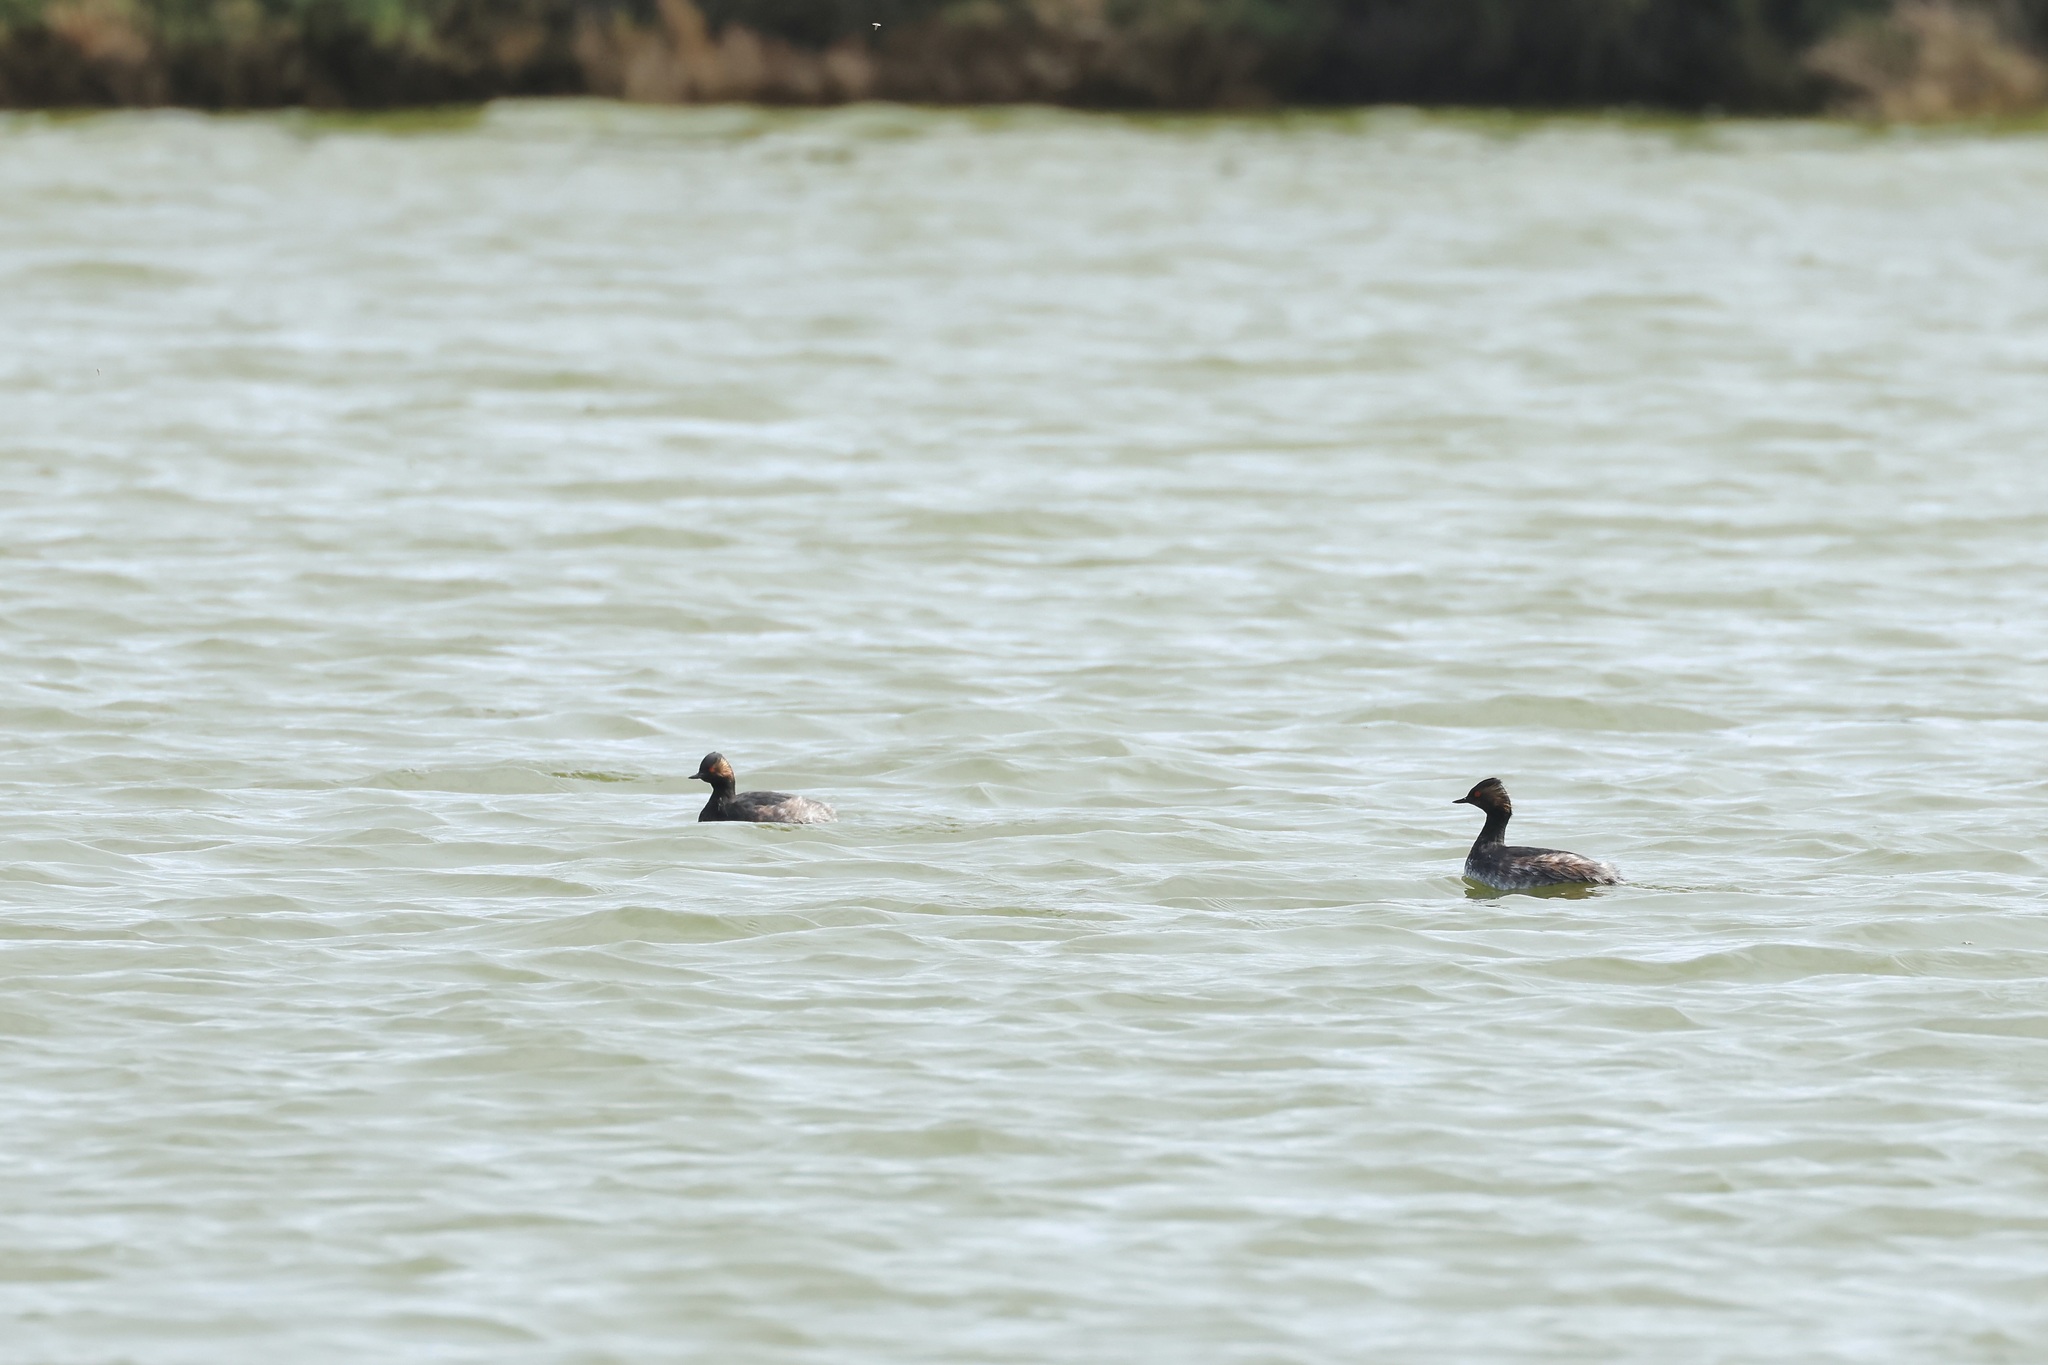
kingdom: Animalia
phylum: Chordata
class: Aves
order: Podicipediformes
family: Podicipedidae
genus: Podiceps
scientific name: Podiceps nigricollis
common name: Black-necked grebe
